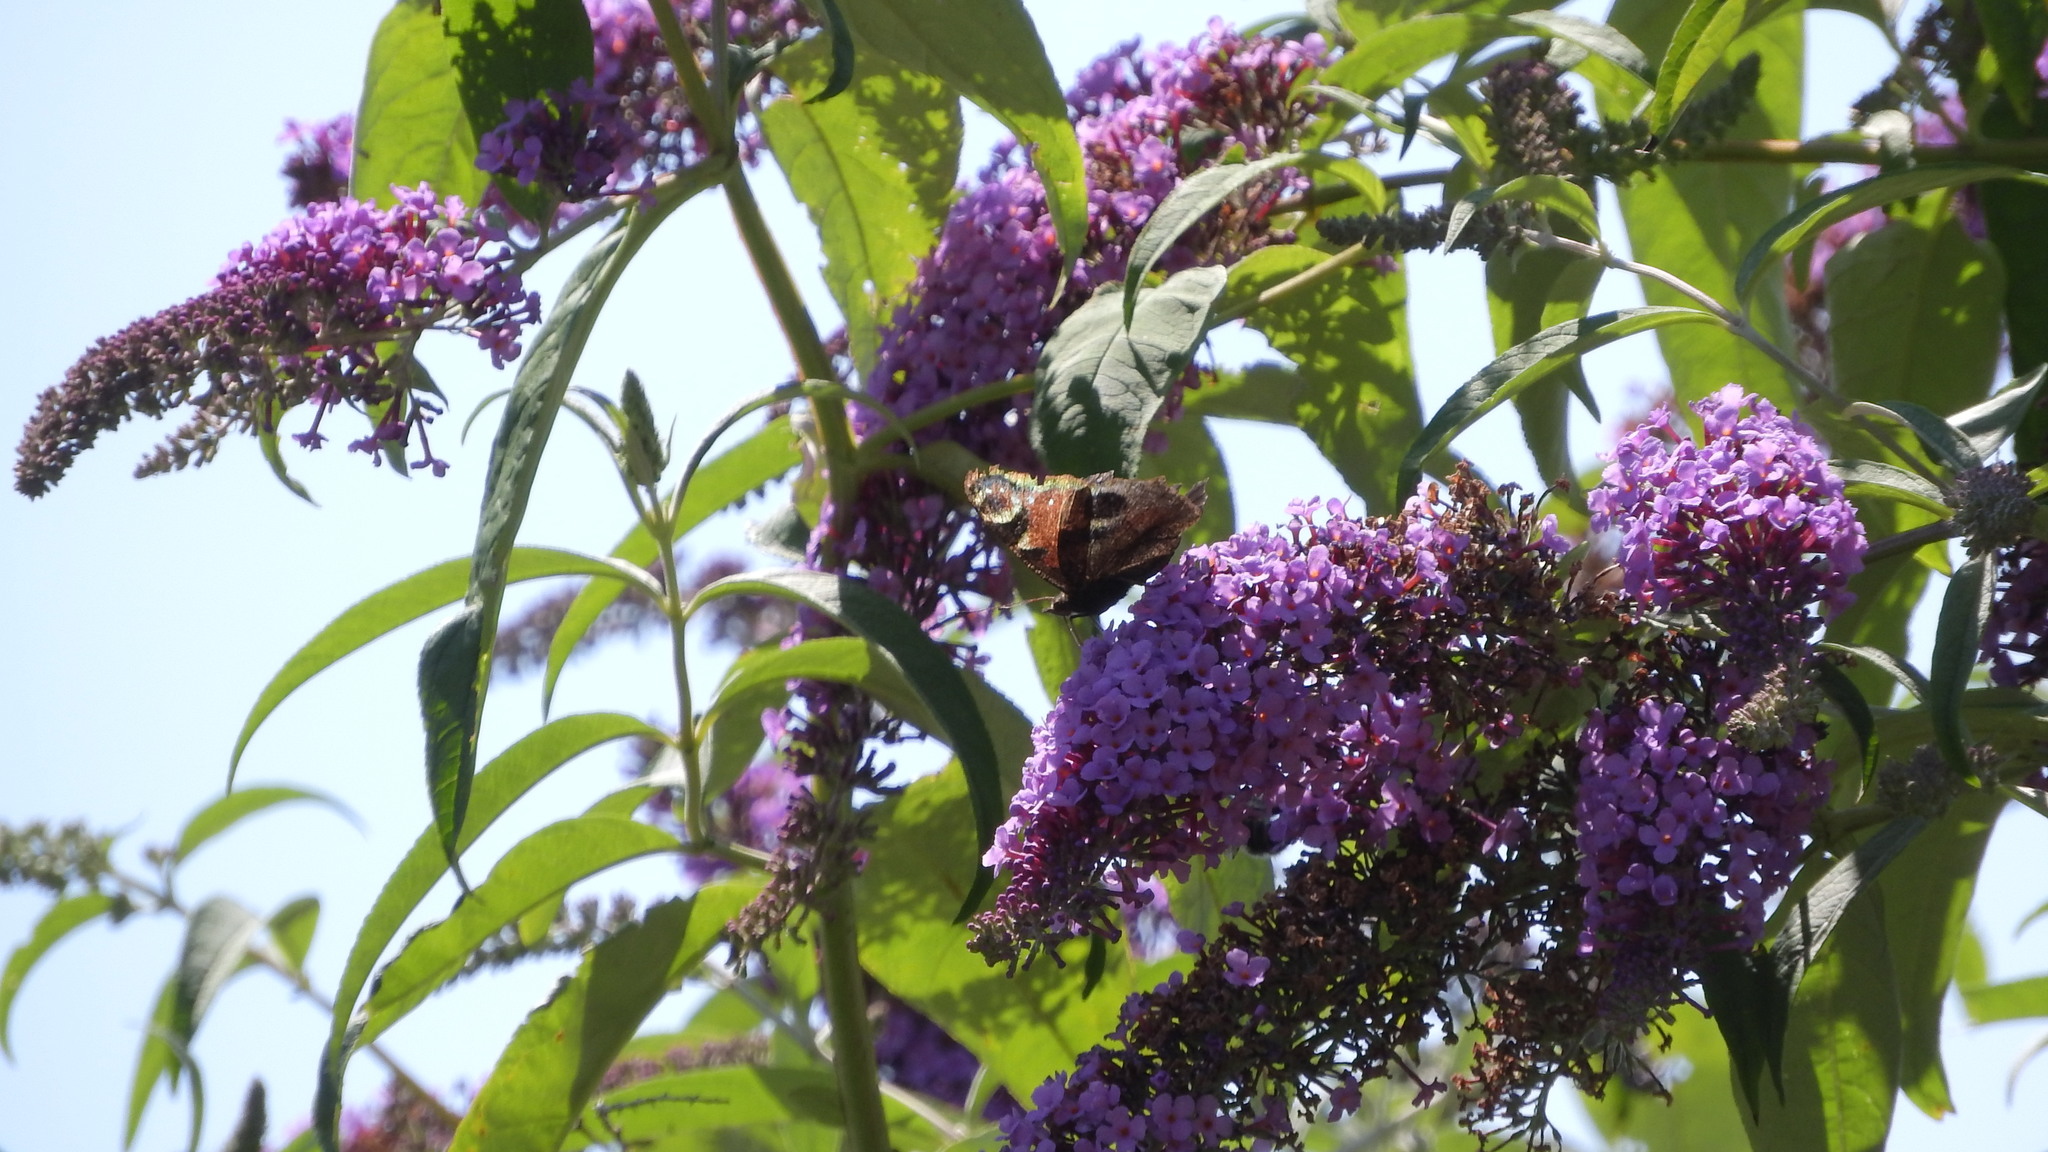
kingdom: Animalia
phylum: Arthropoda
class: Insecta
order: Lepidoptera
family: Nymphalidae
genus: Aglais
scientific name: Aglais io
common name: Peacock
